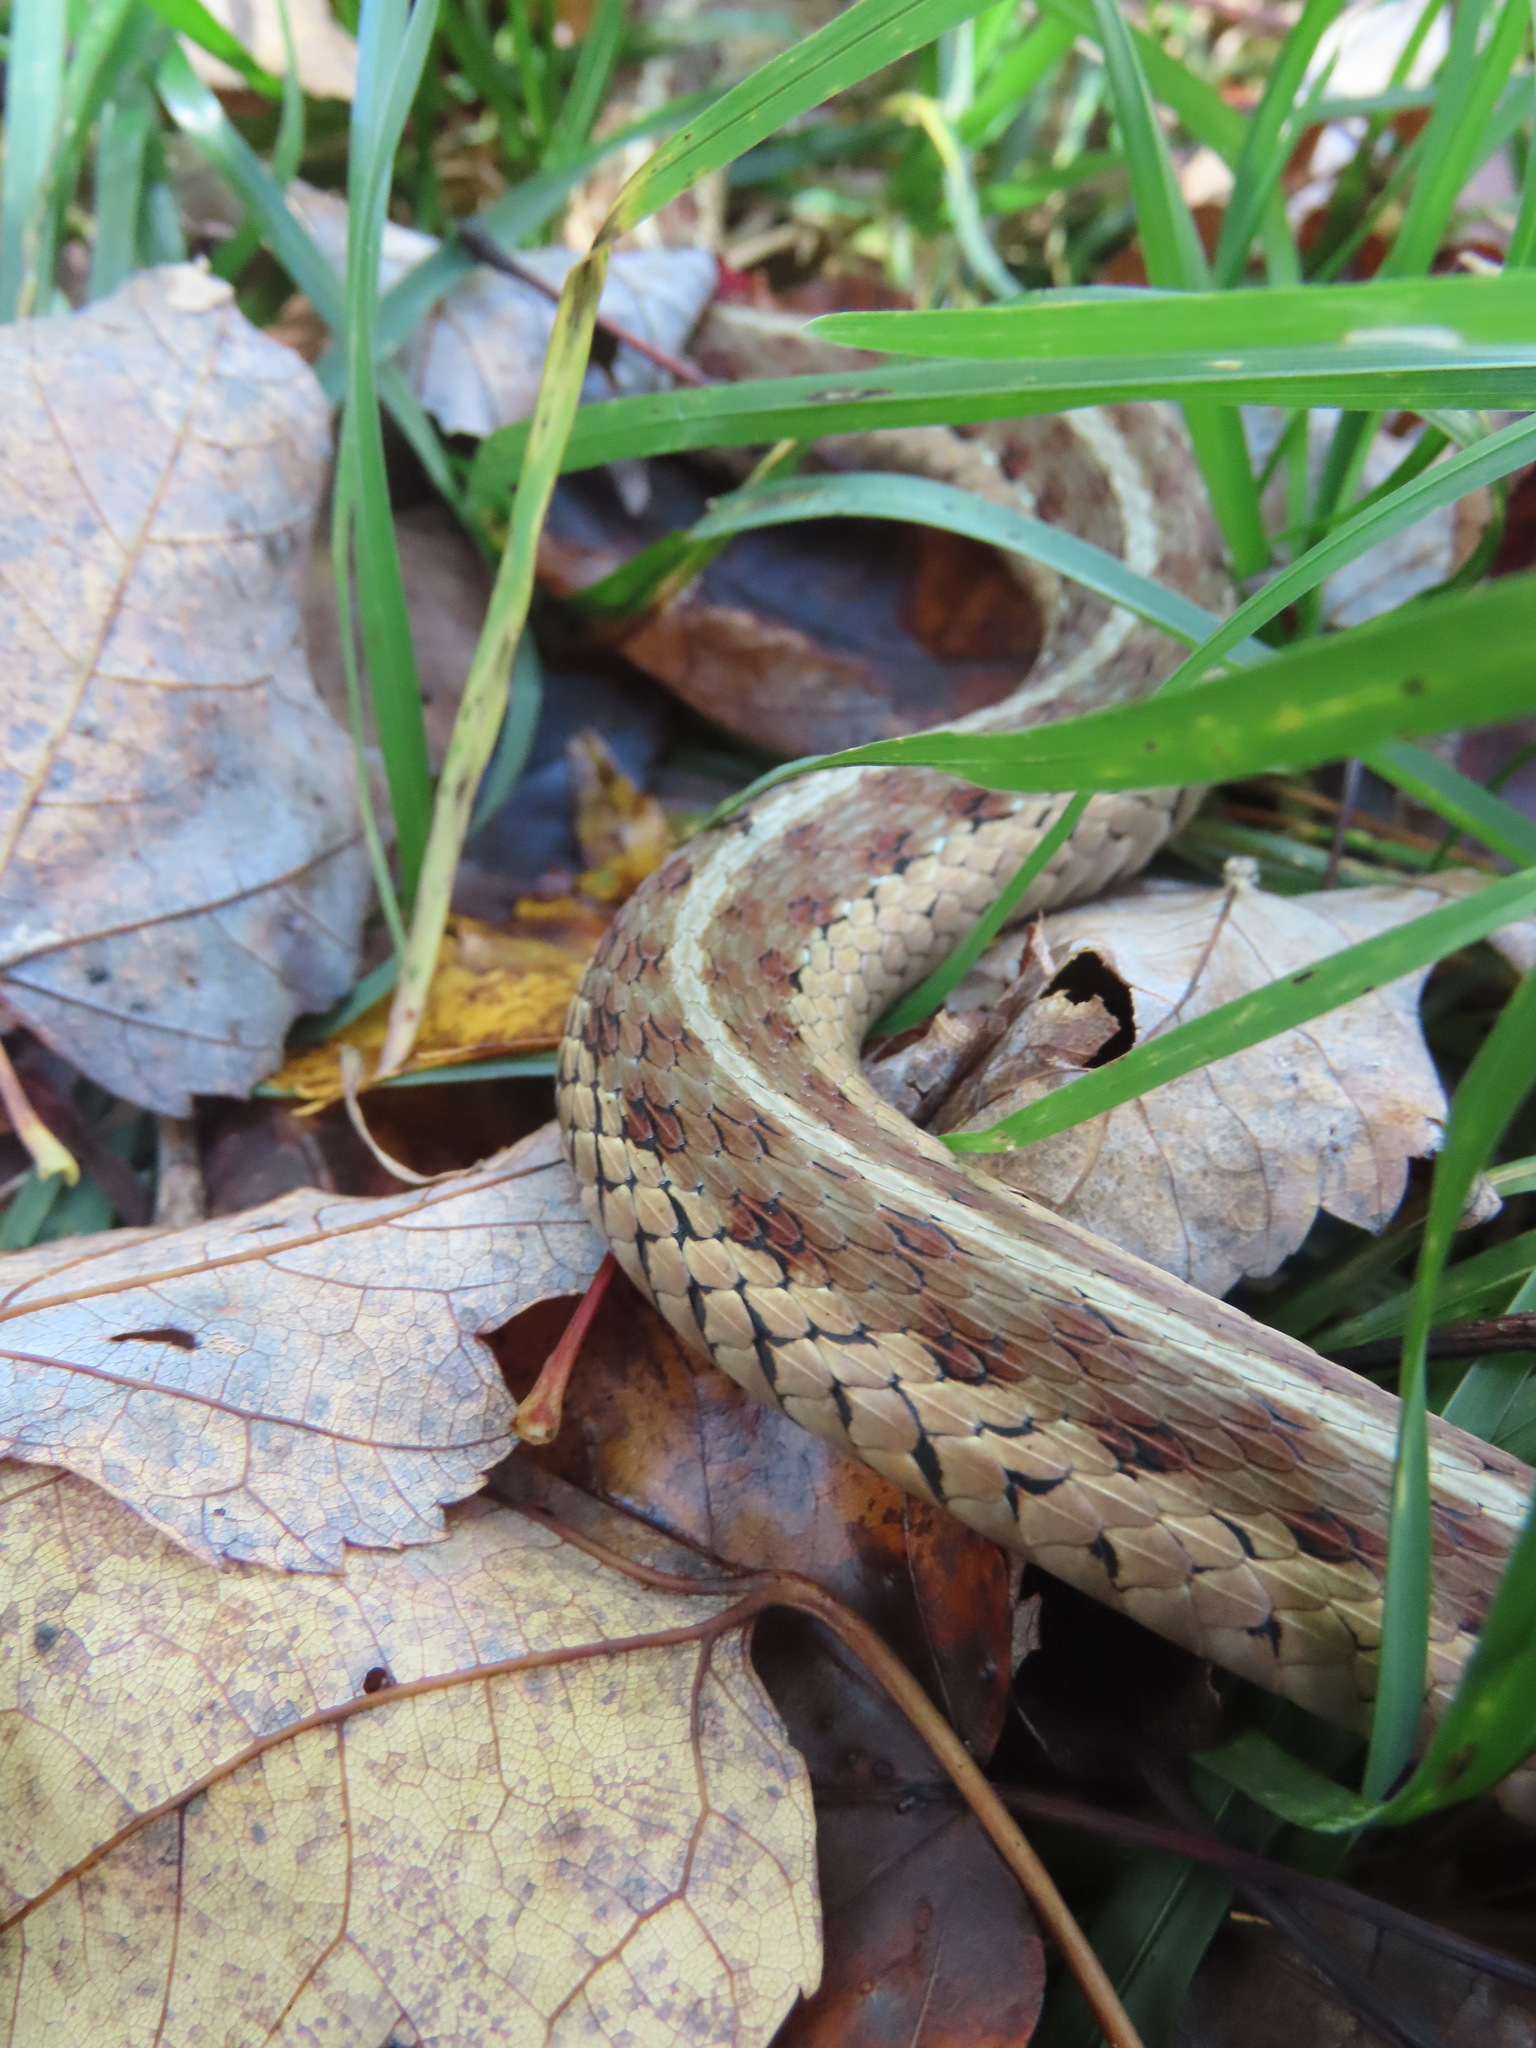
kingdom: Animalia
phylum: Chordata
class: Squamata
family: Colubridae
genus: Thamnophis
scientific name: Thamnophis sirtalis
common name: Common garter snake
